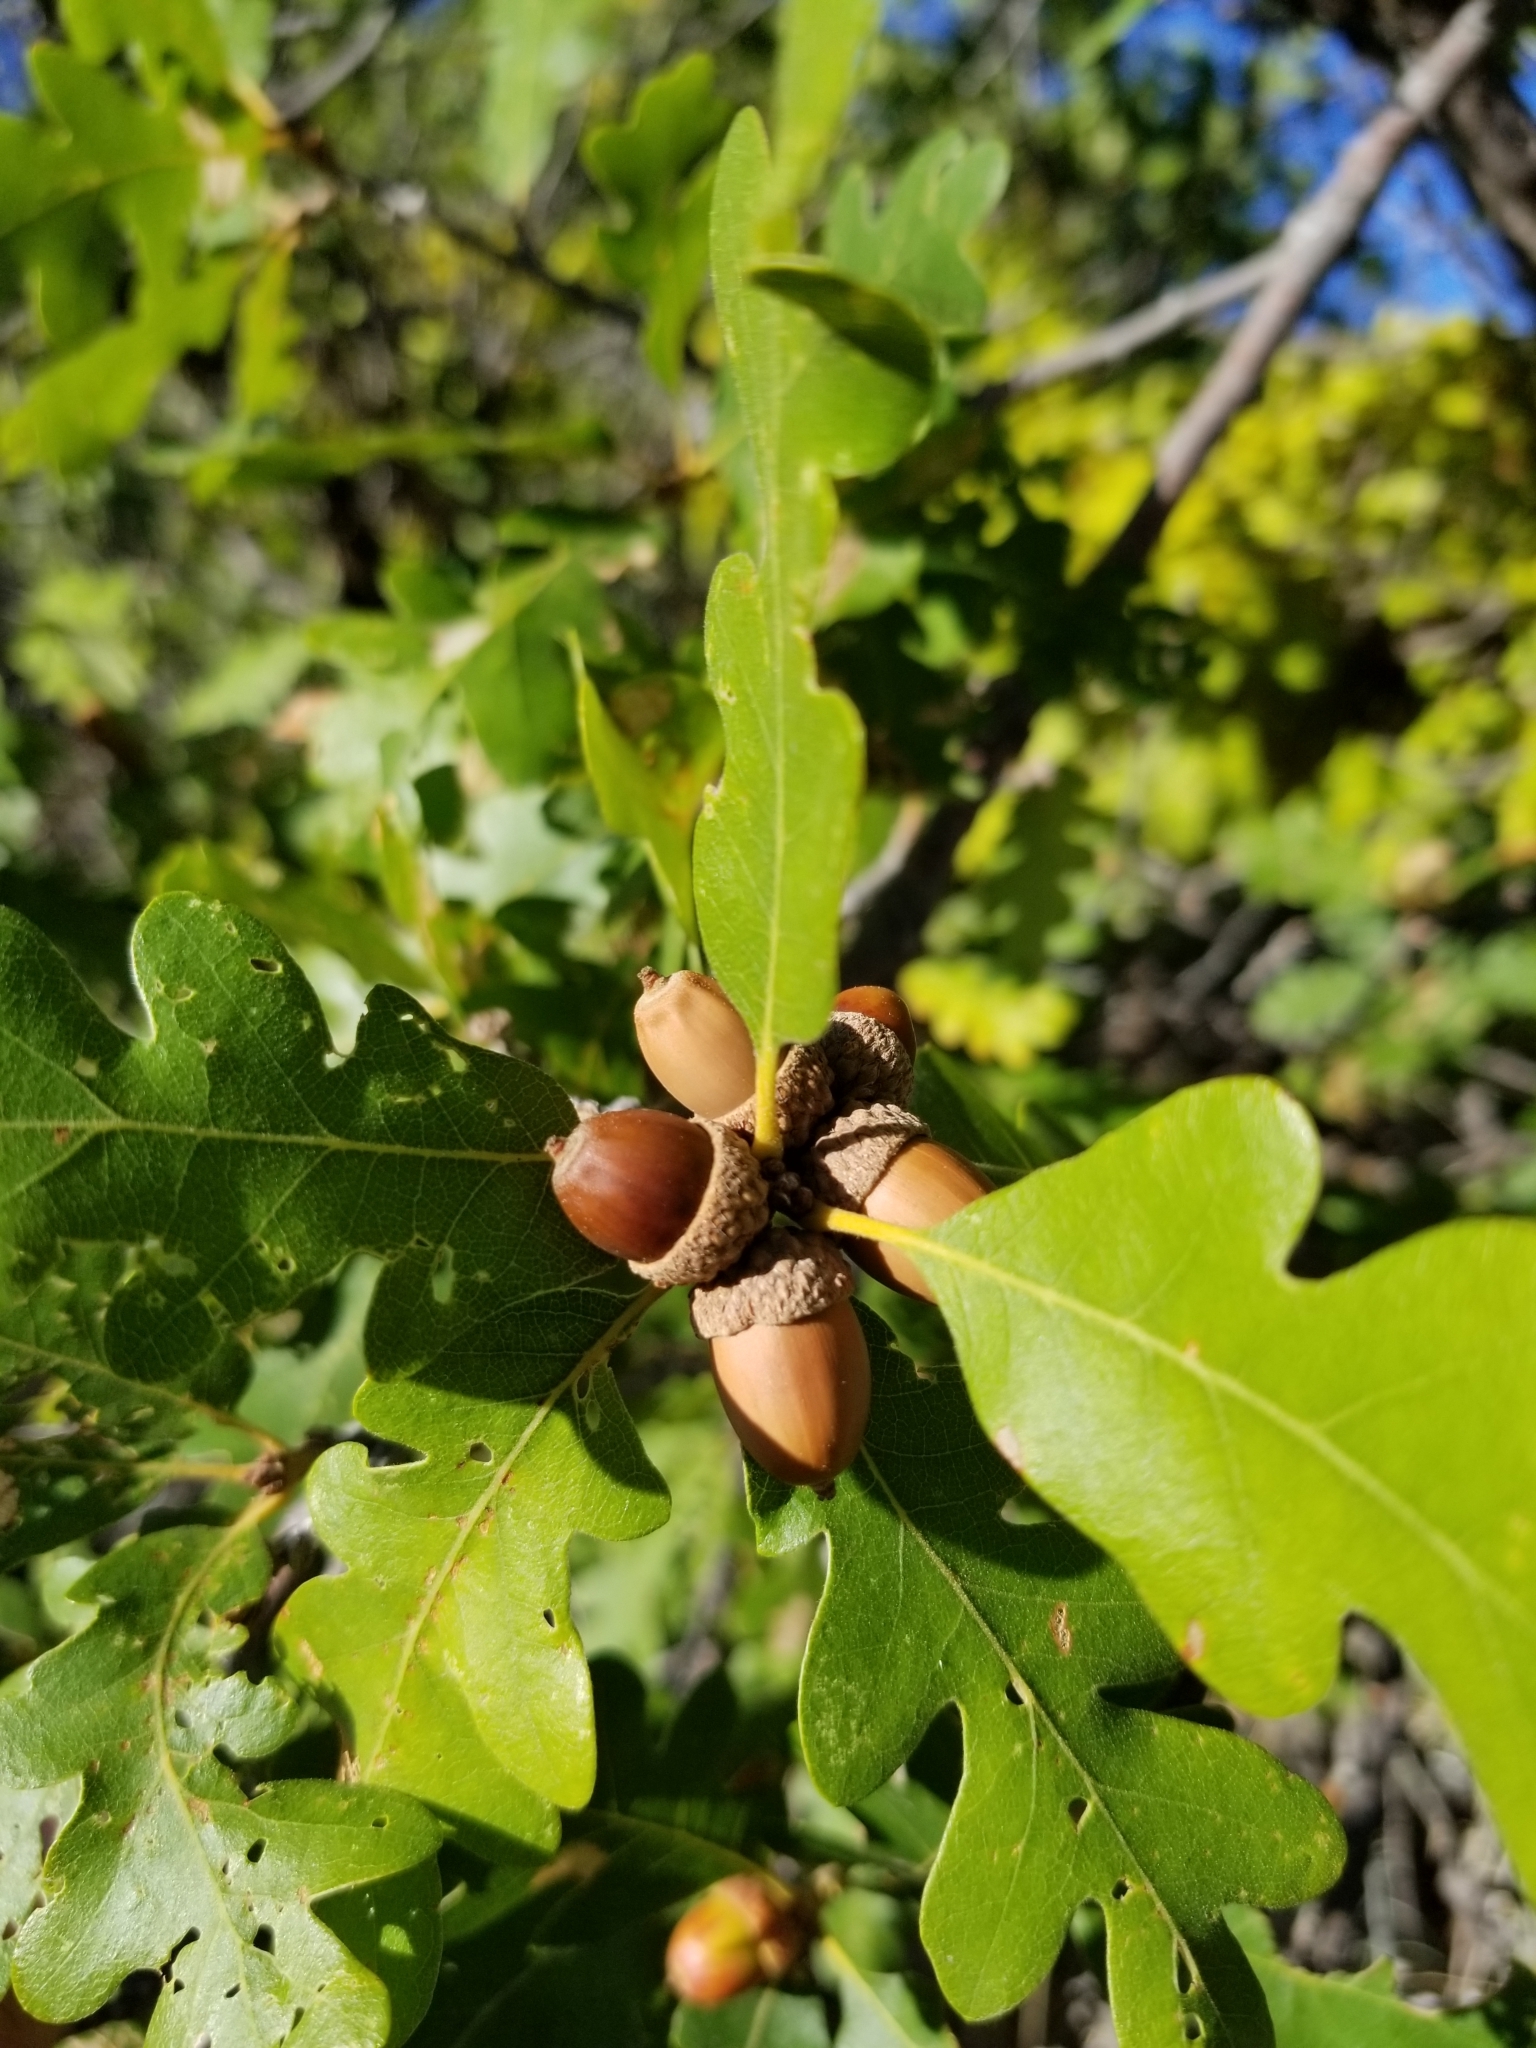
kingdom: Plantae
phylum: Tracheophyta
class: Magnoliopsida
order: Fagales
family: Fagaceae
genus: Quercus
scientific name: Quercus gambelii
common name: Gambel oak
